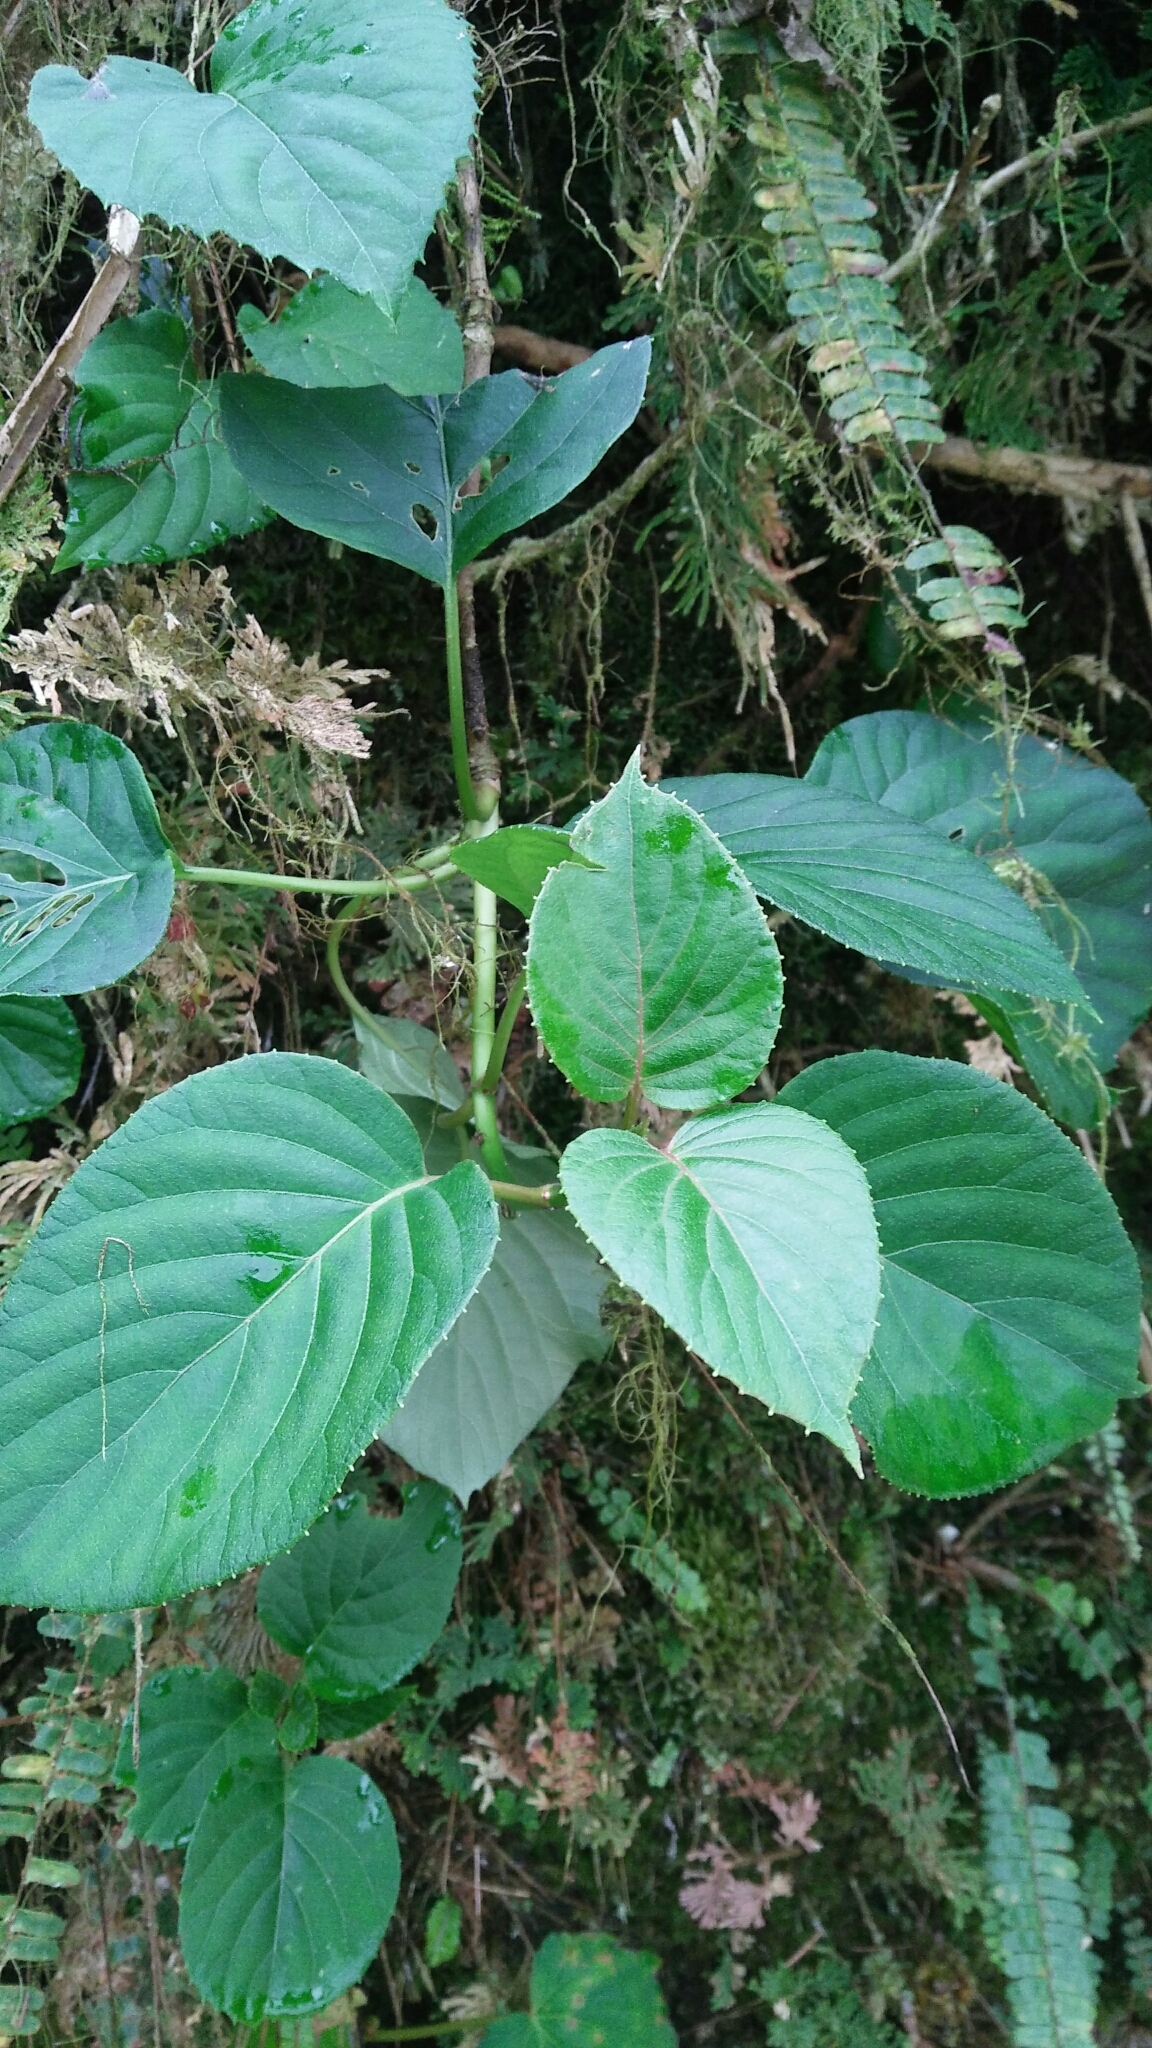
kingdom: Plantae
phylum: Tracheophyta
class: Magnoliopsida
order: Cornales
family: Hydrangeaceae
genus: Hydrangea
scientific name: Hydrangea fauriei
